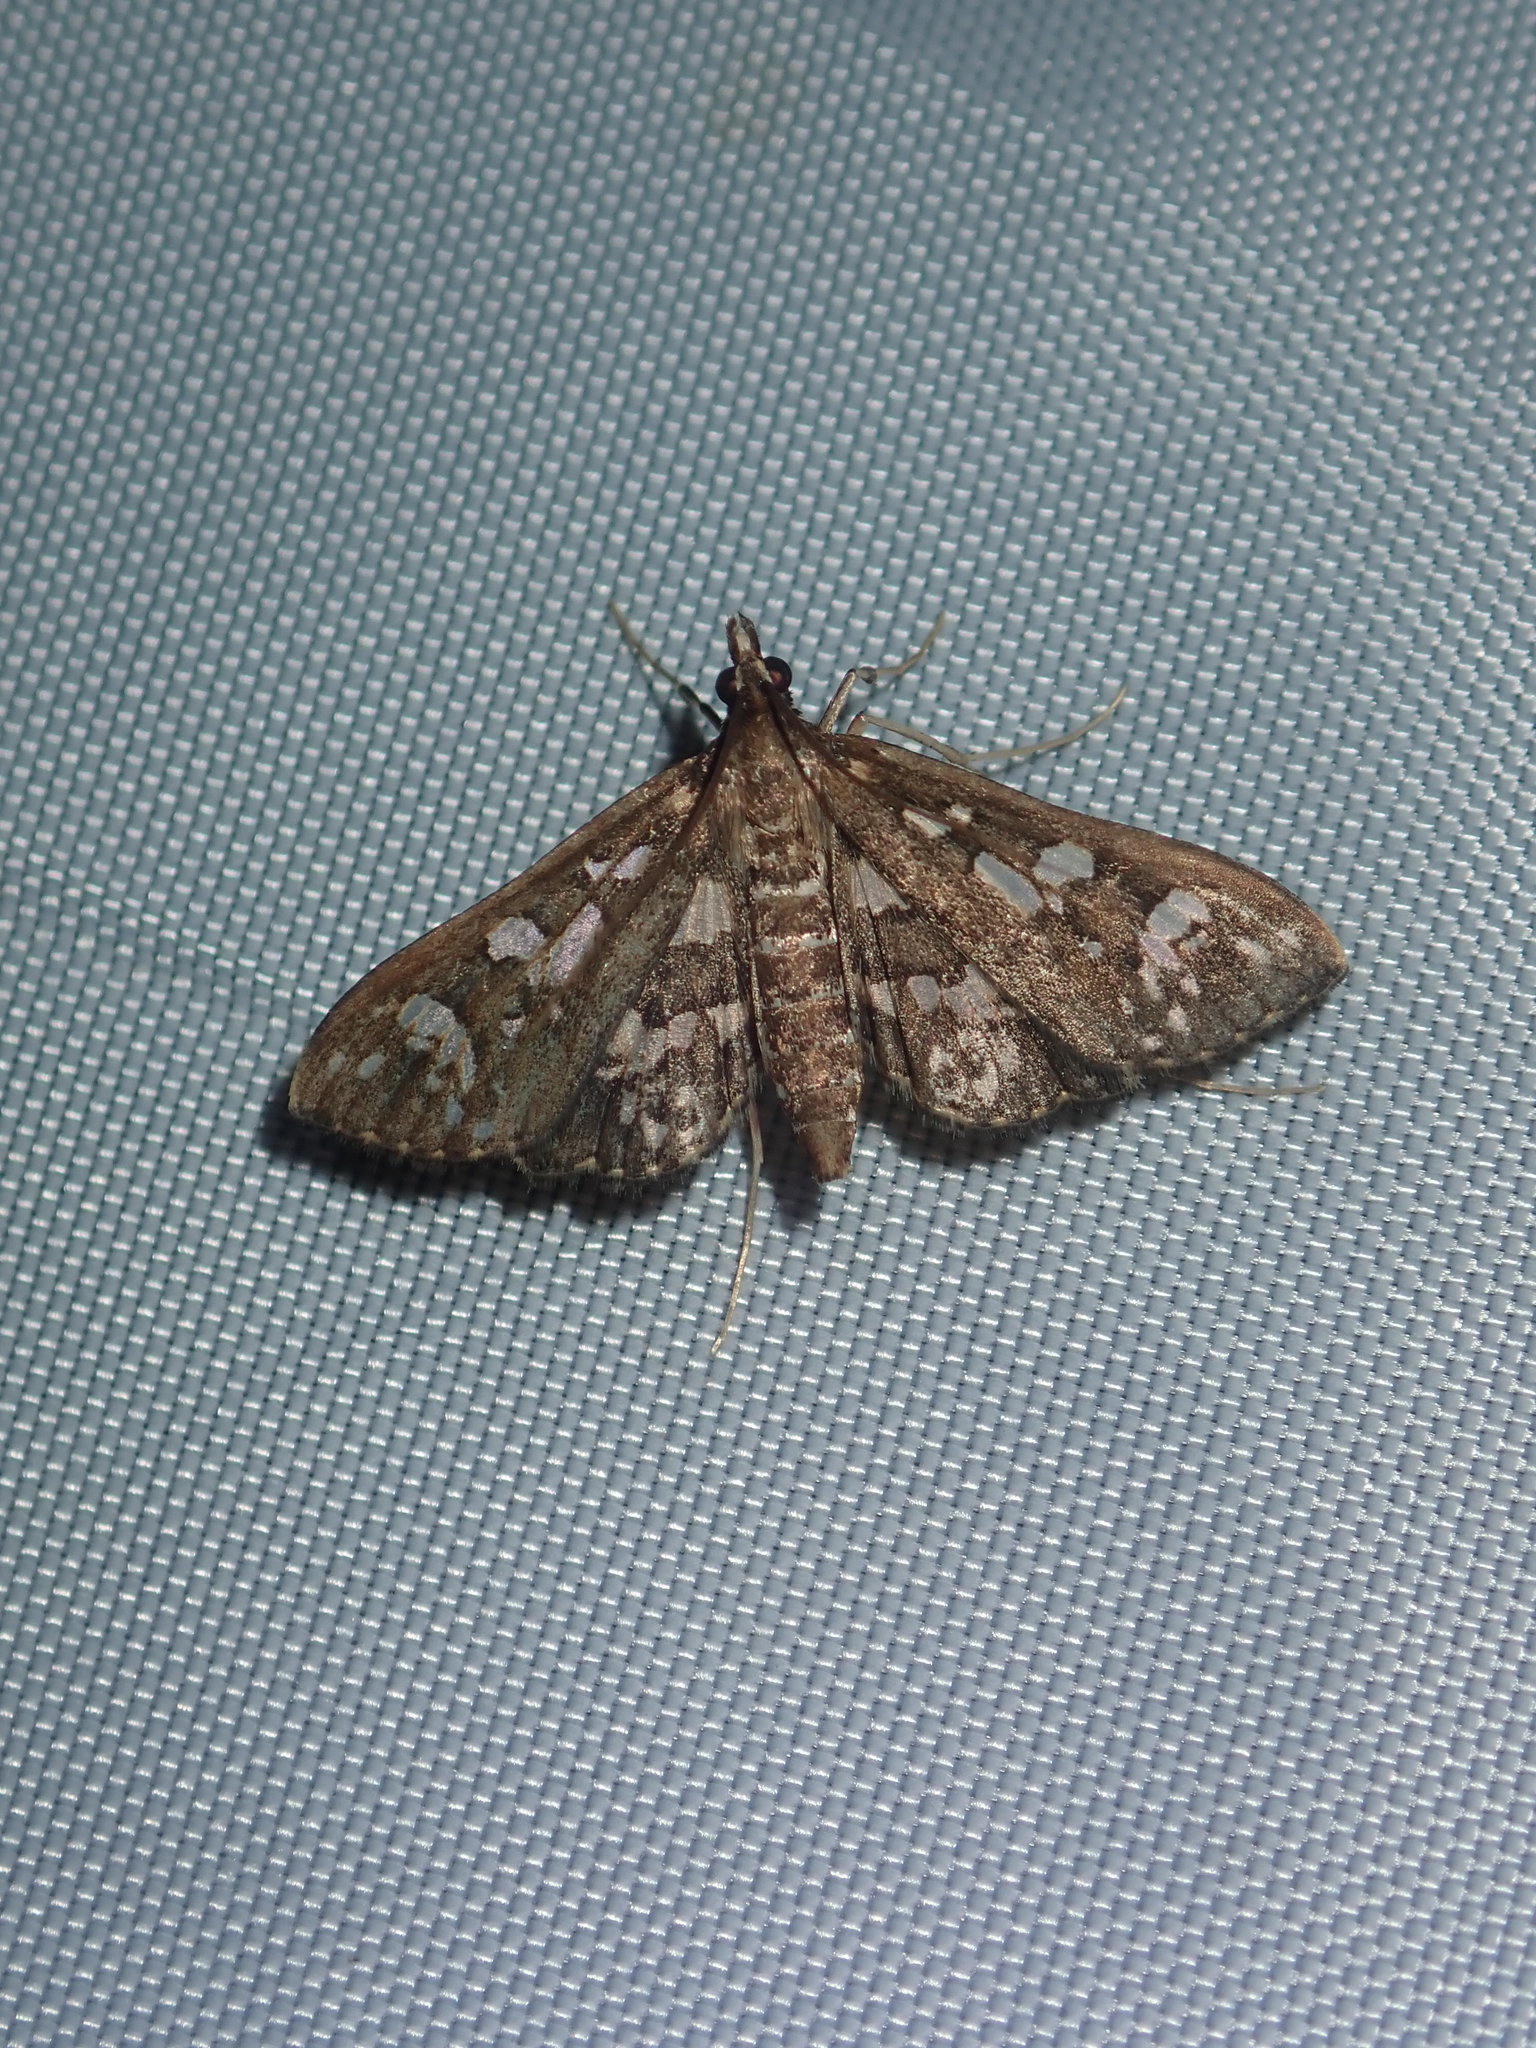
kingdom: Animalia
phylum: Arthropoda
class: Insecta
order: Lepidoptera
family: Crambidae
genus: Ischnurges
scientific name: Ischnurges illustralis
